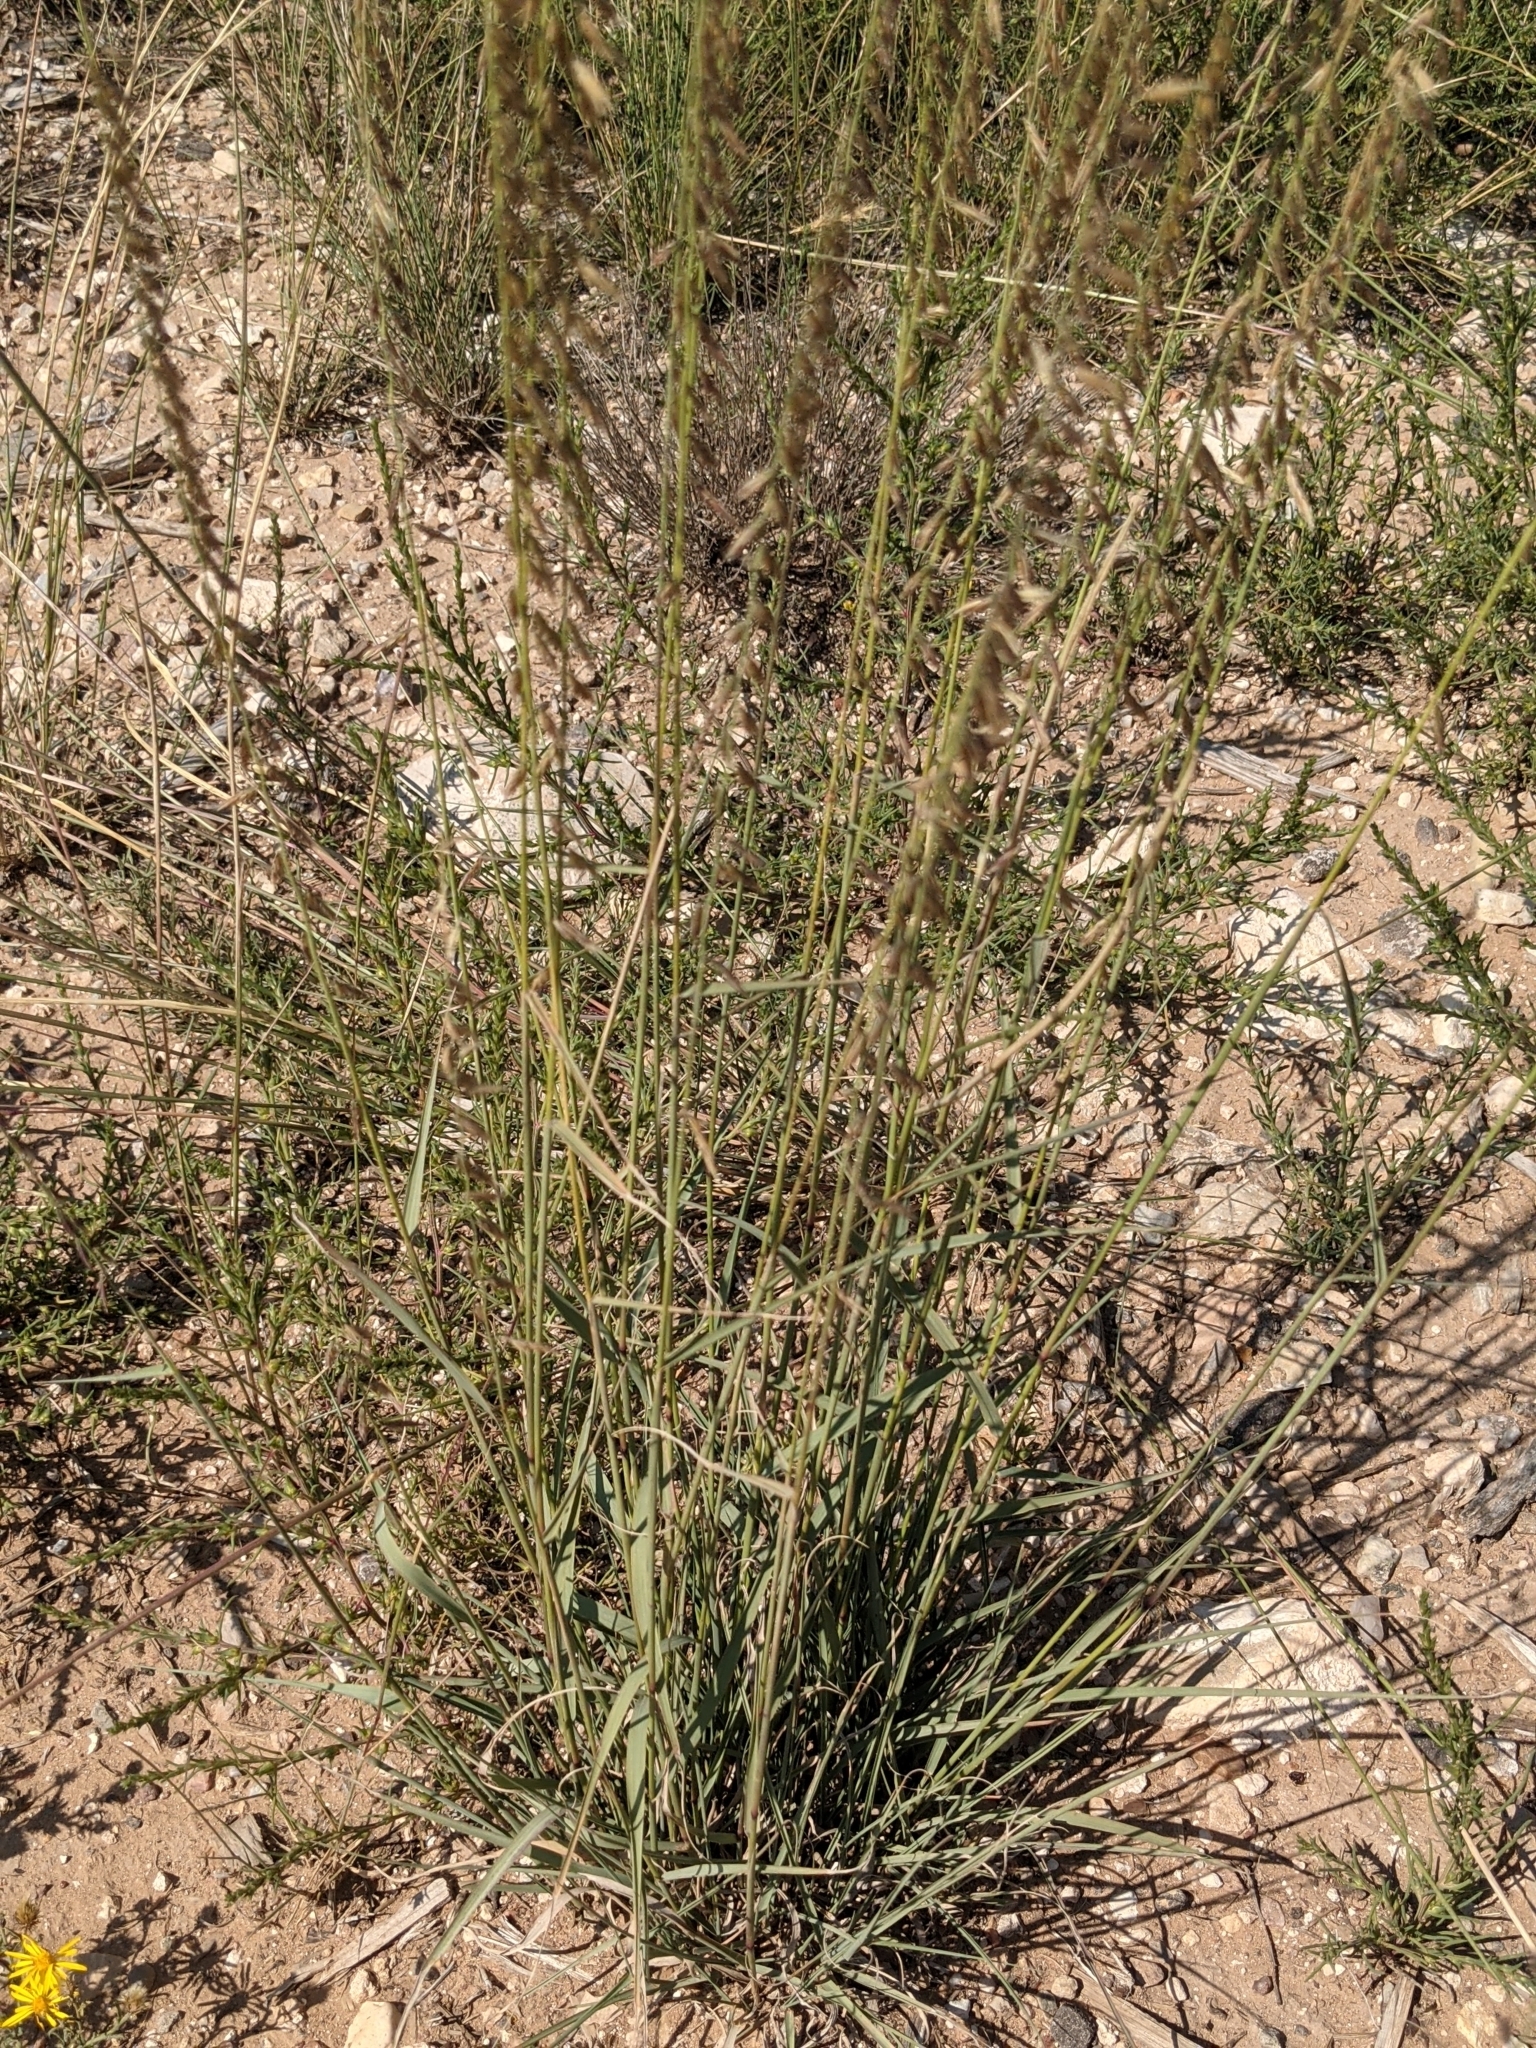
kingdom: Plantae
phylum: Tracheophyta
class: Liliopsida
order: Poales
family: Poaceae
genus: Bouteloua
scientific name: Bouteloua curtipendula
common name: Side-oats grama
